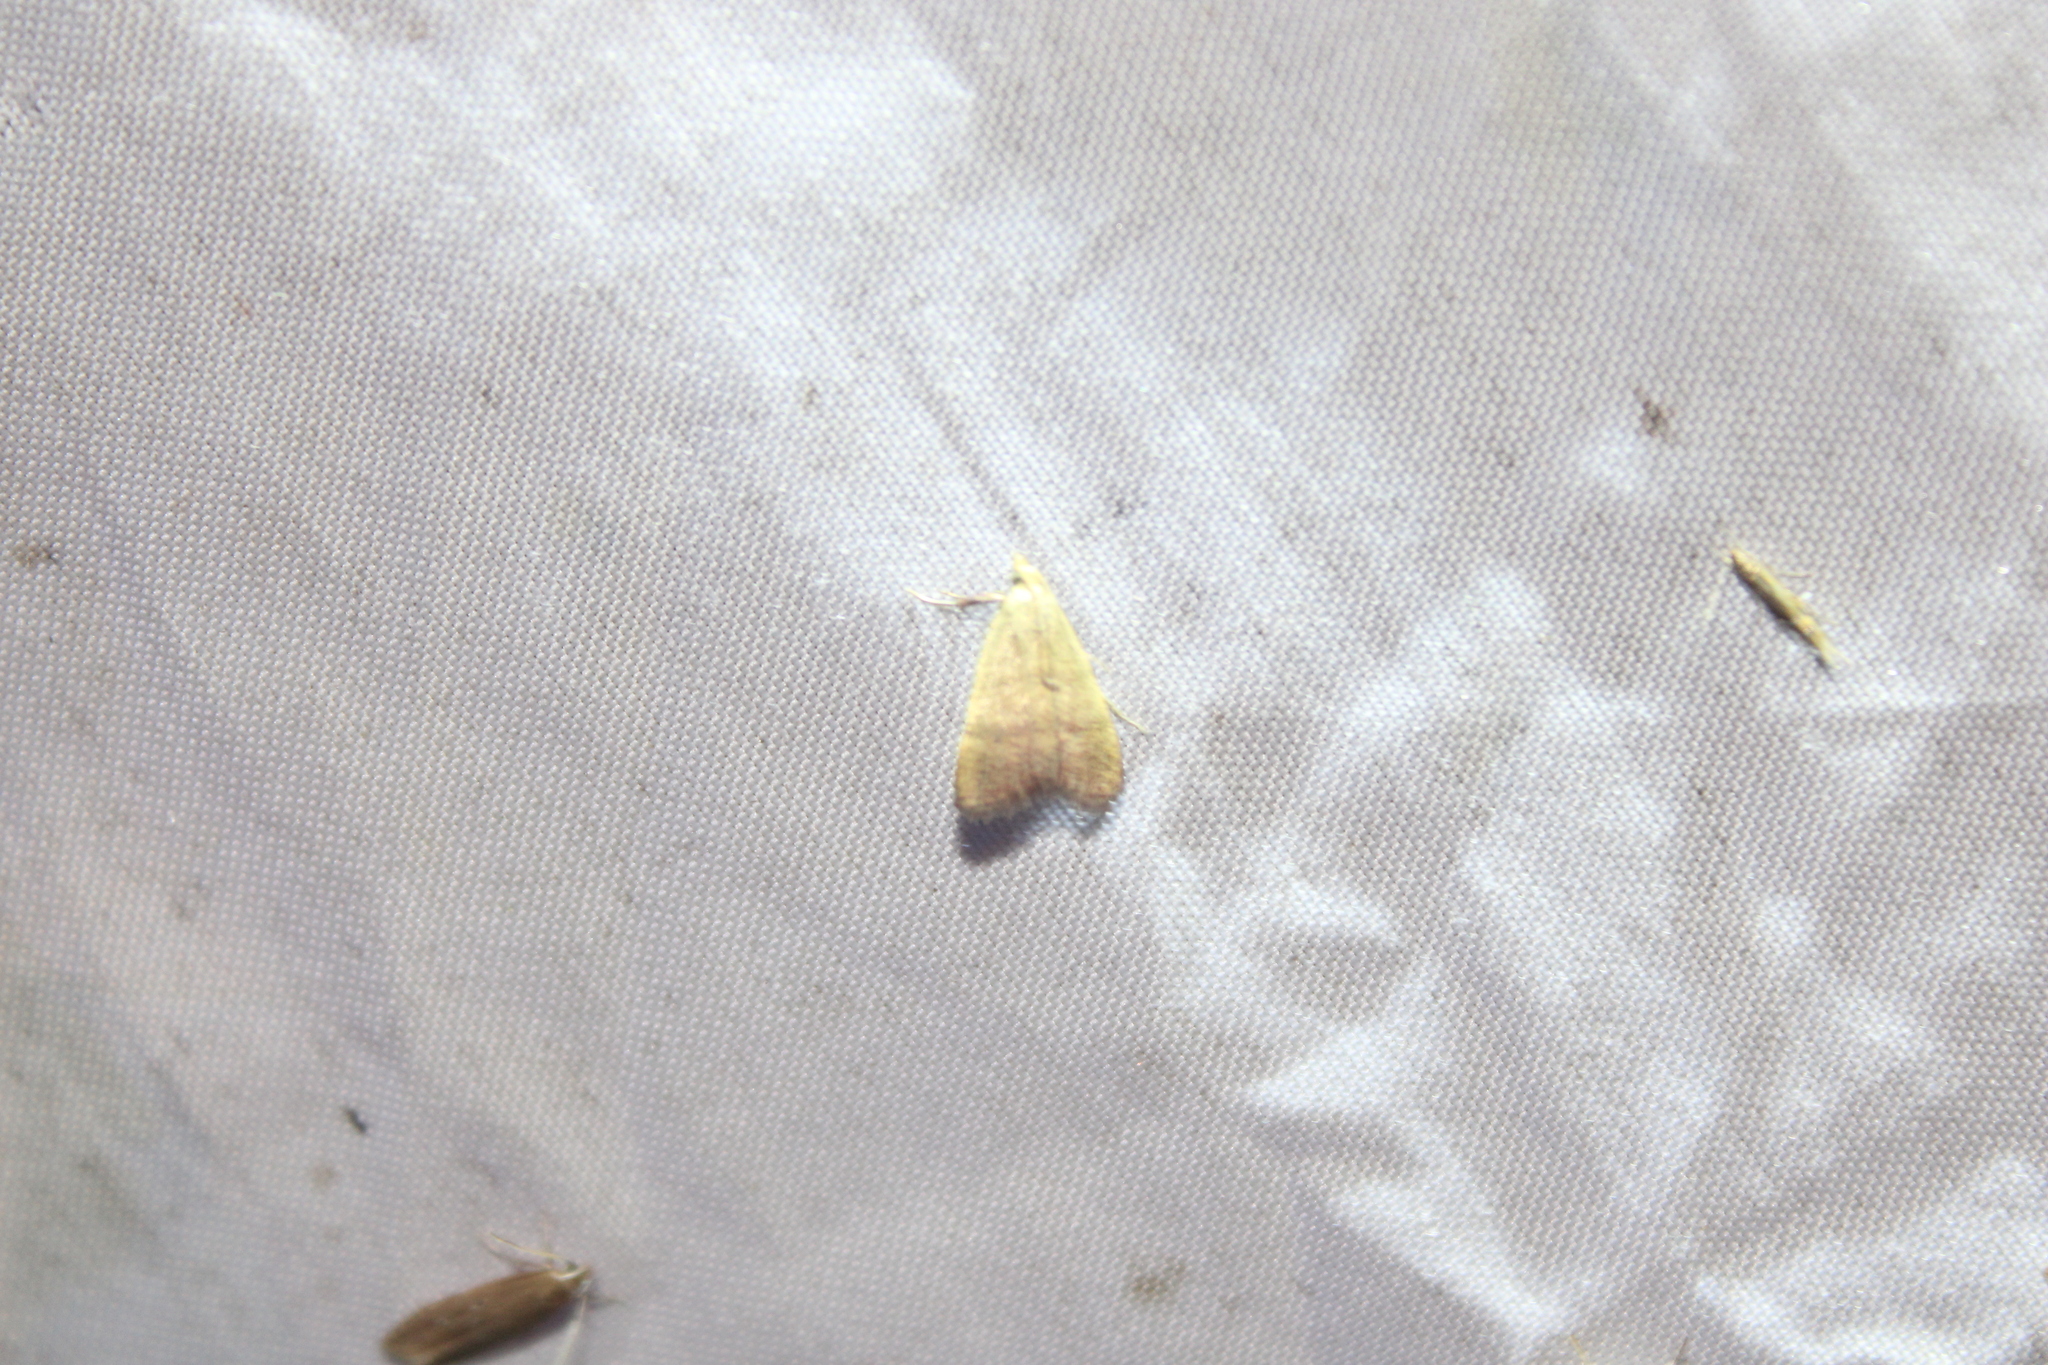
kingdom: Animalia
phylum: Arthropoda
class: Insecta
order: Lepidoptera
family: Pyralidae
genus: Condylolomia
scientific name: Condylolomia participialis
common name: Drab condylolomia moth
